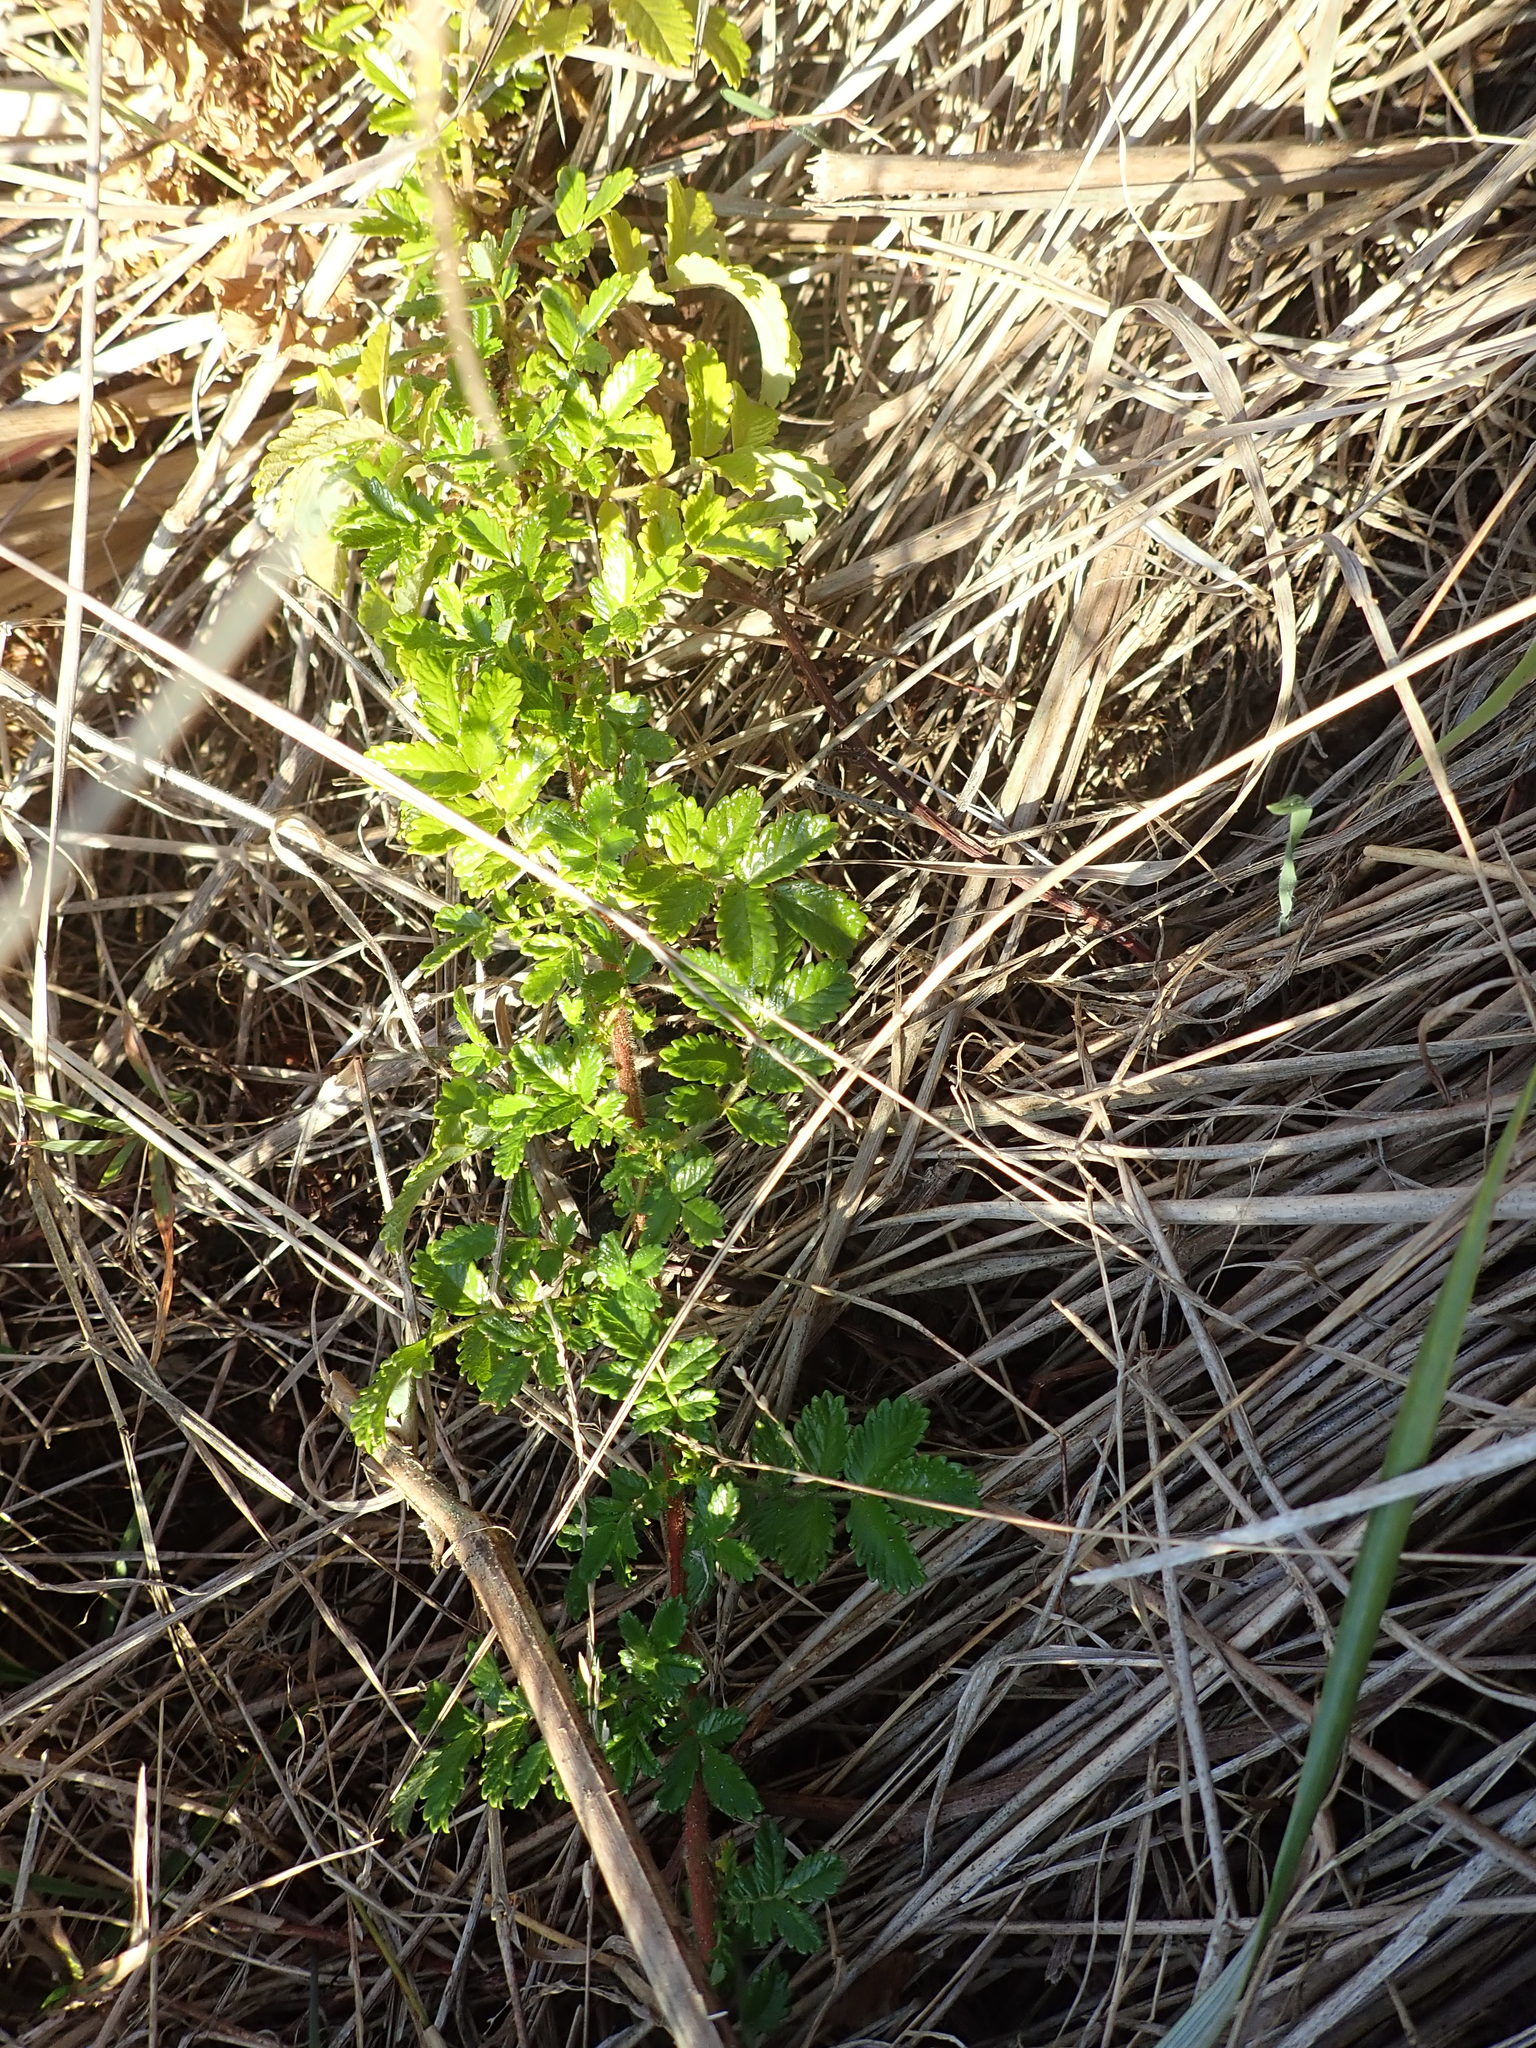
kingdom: Plantae
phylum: Tracheophyta
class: Magnoliopsida
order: Rosales
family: Rosaceae
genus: Acaena
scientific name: Acaena novae-zelandiae
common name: Pirri-pirri-bur
